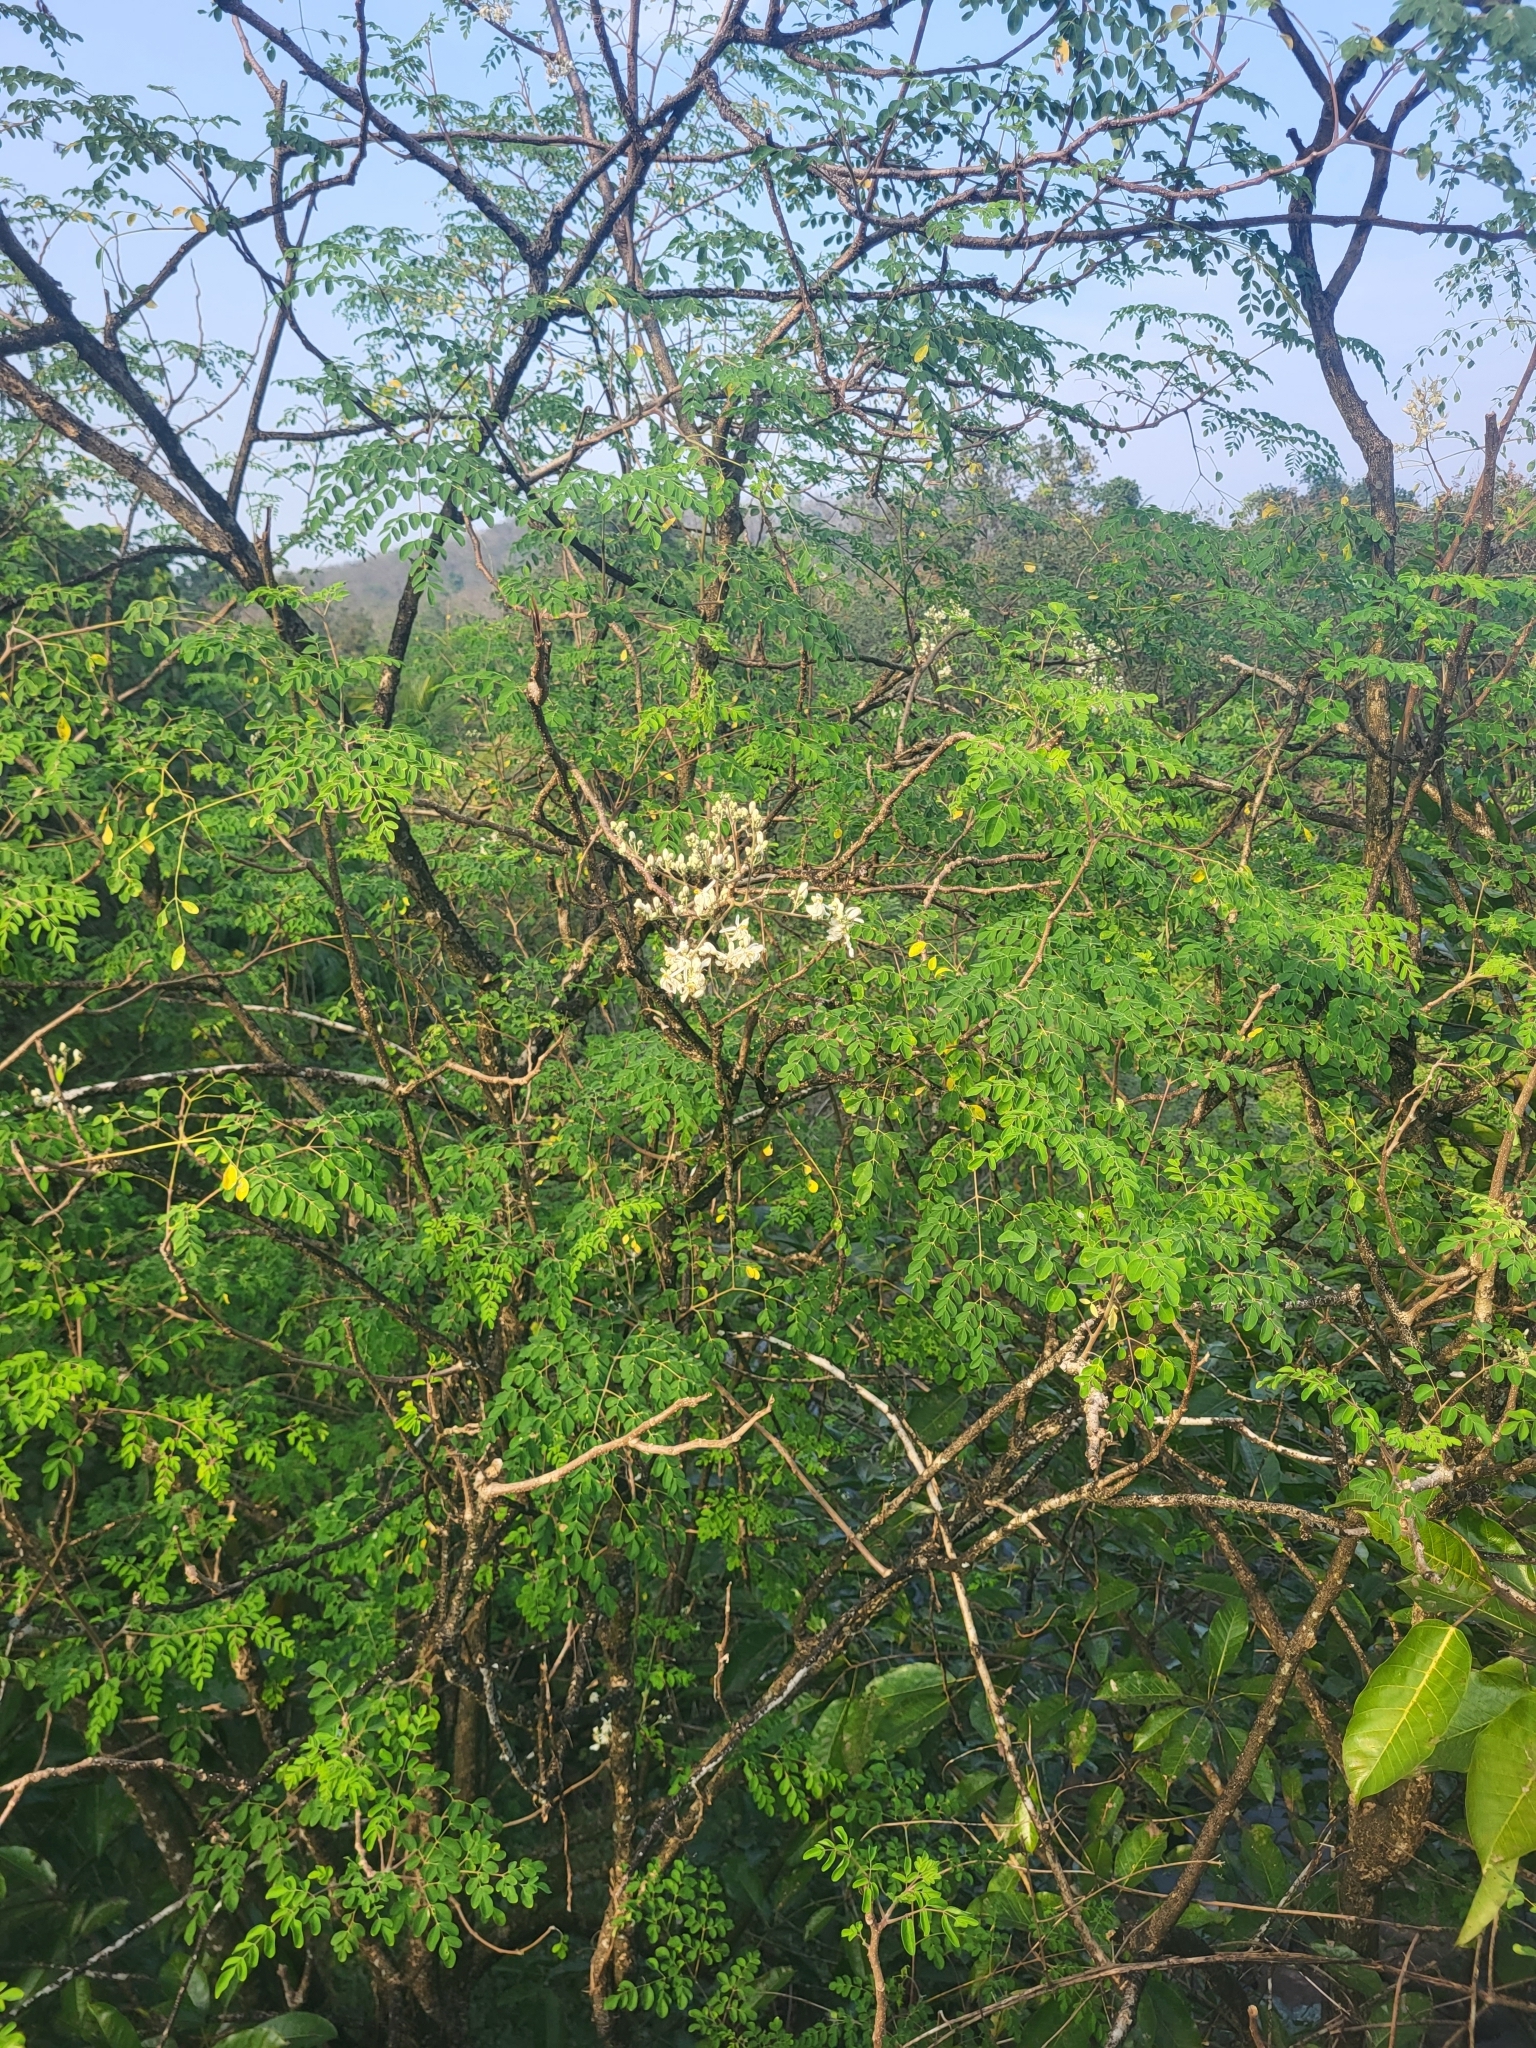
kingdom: Plantae
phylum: Tracheophyta
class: Magnoliopsida
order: Brassicales
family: Moringaceae
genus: Moringa
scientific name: Moringa oleifera
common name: Horseradish-tree
